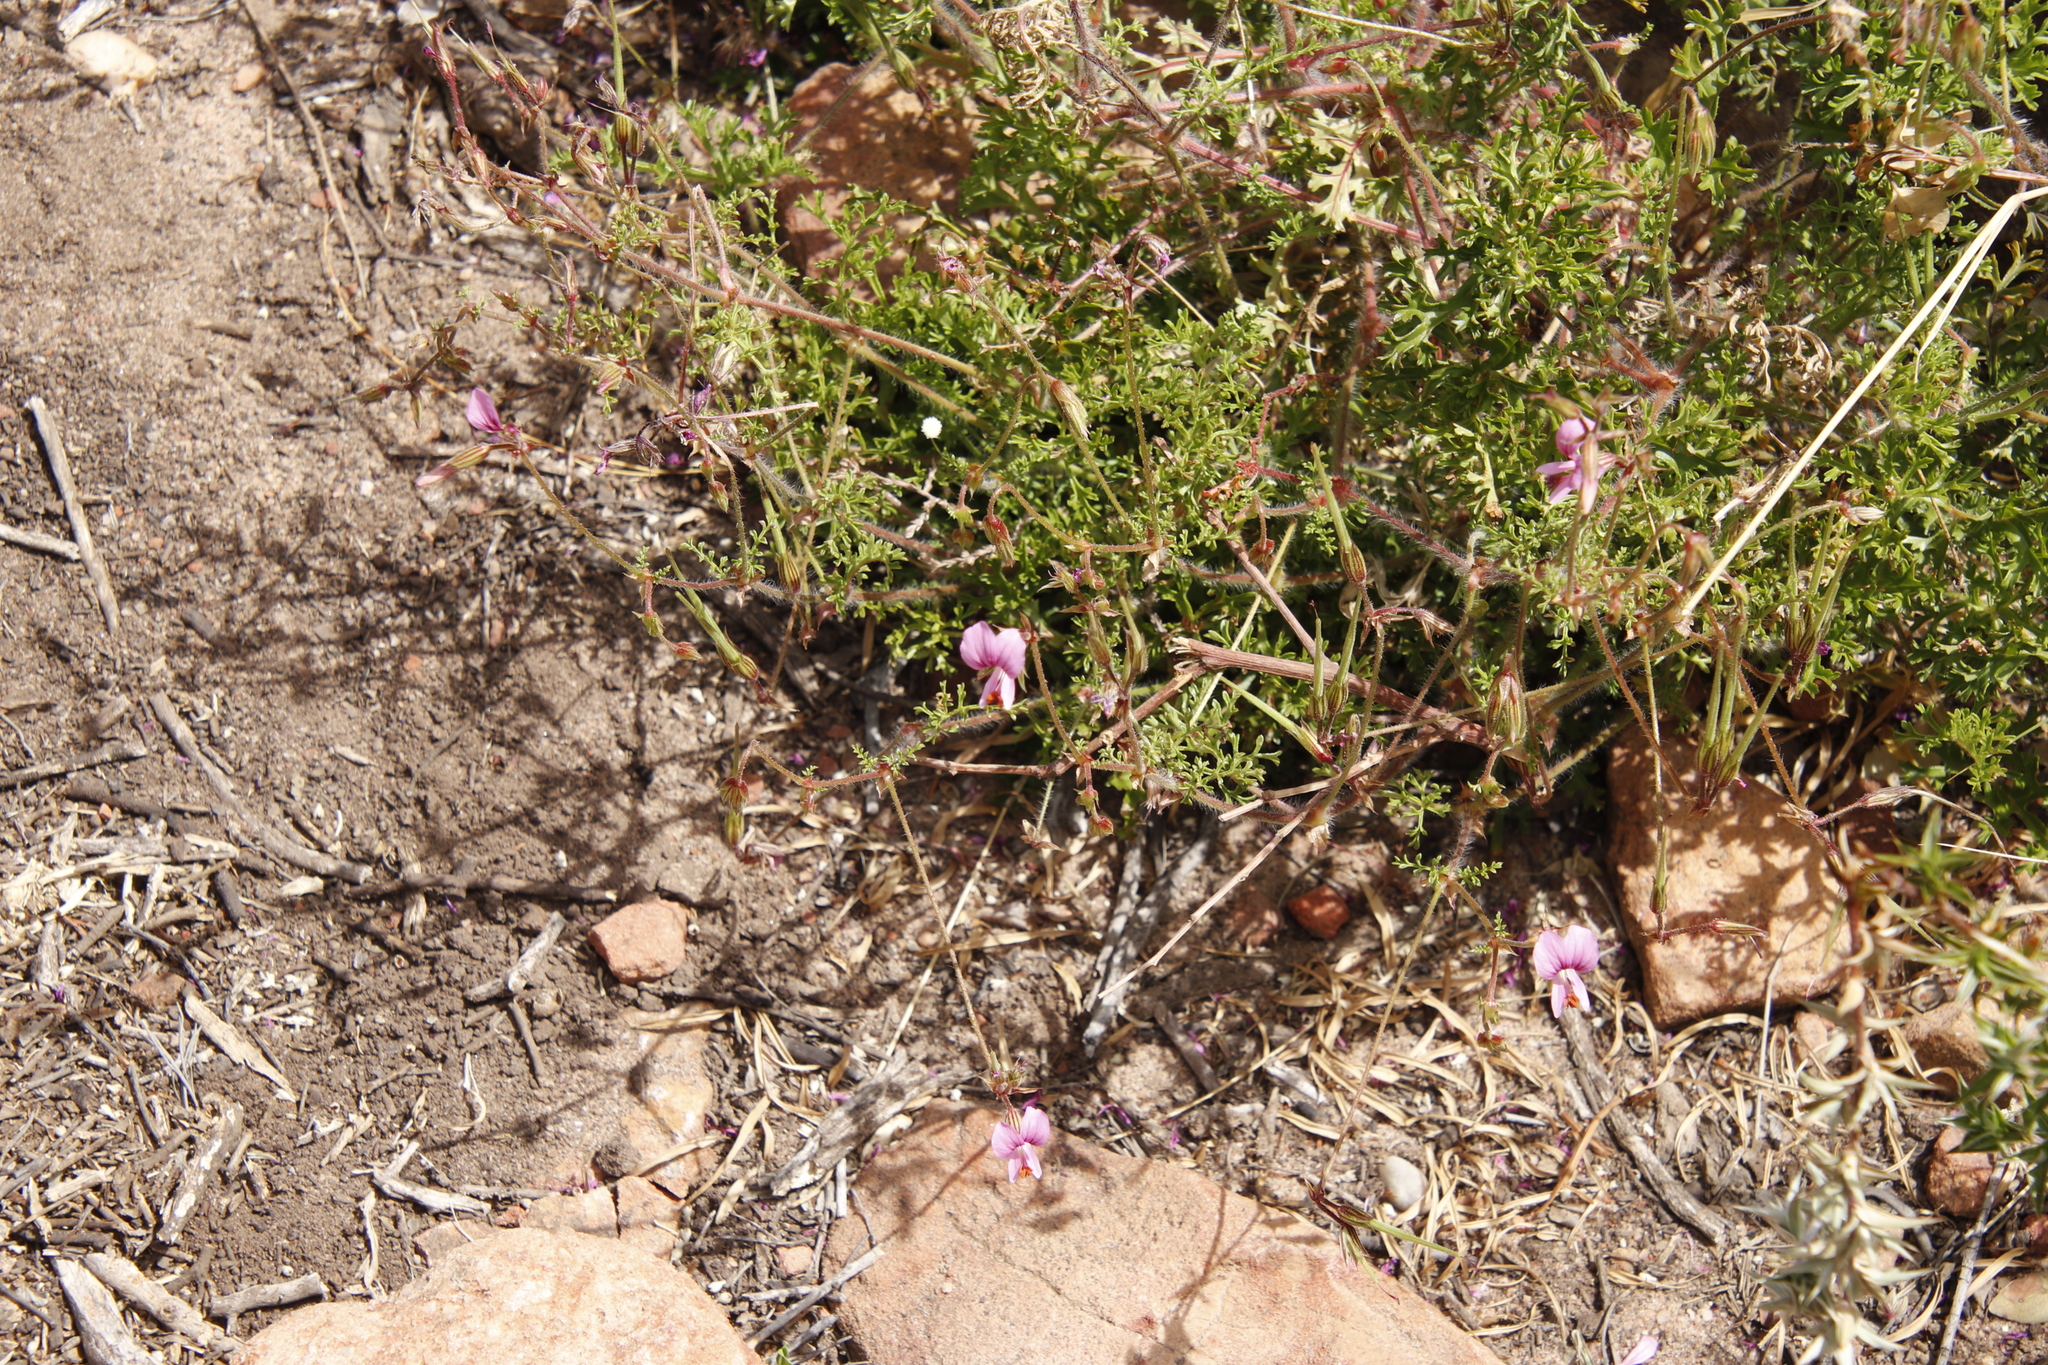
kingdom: Plantae
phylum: Tracheophyta
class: Magnoliopsida
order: Geraniales
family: Geraniaceae
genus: Pelargonium
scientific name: Pelargonium myrrhifolium
